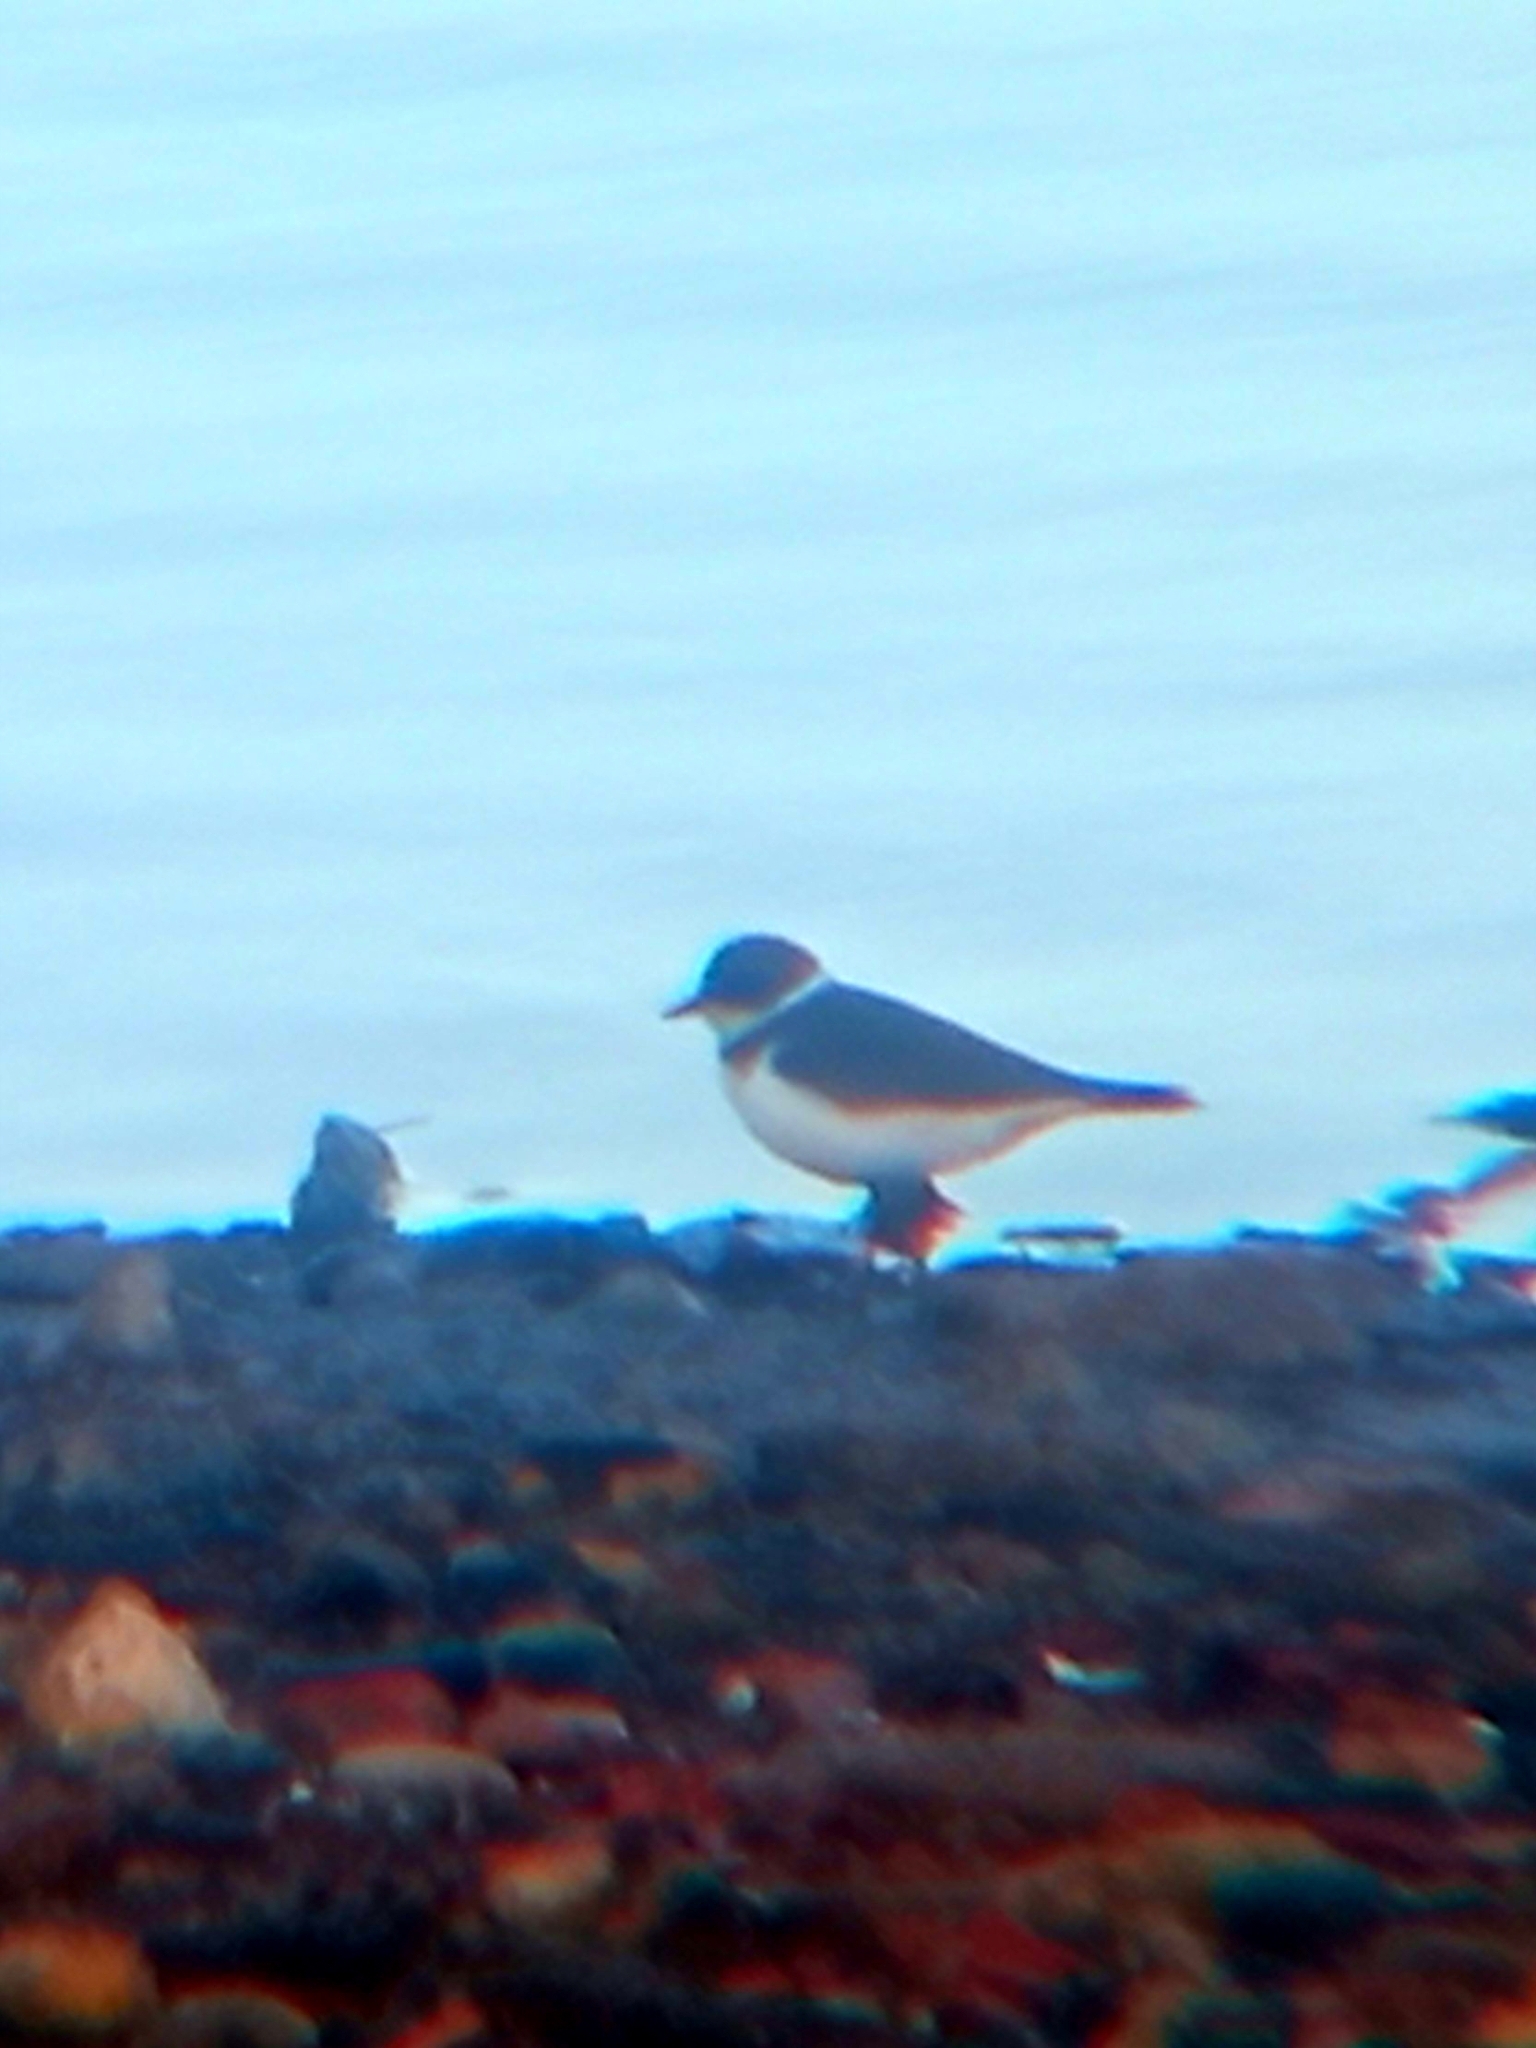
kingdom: Animalia
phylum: Chordata
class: Aves
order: Charadriiformes
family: Charadriidae
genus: Charadrius
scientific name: Charadrius hiaticula
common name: Common ringed plover
